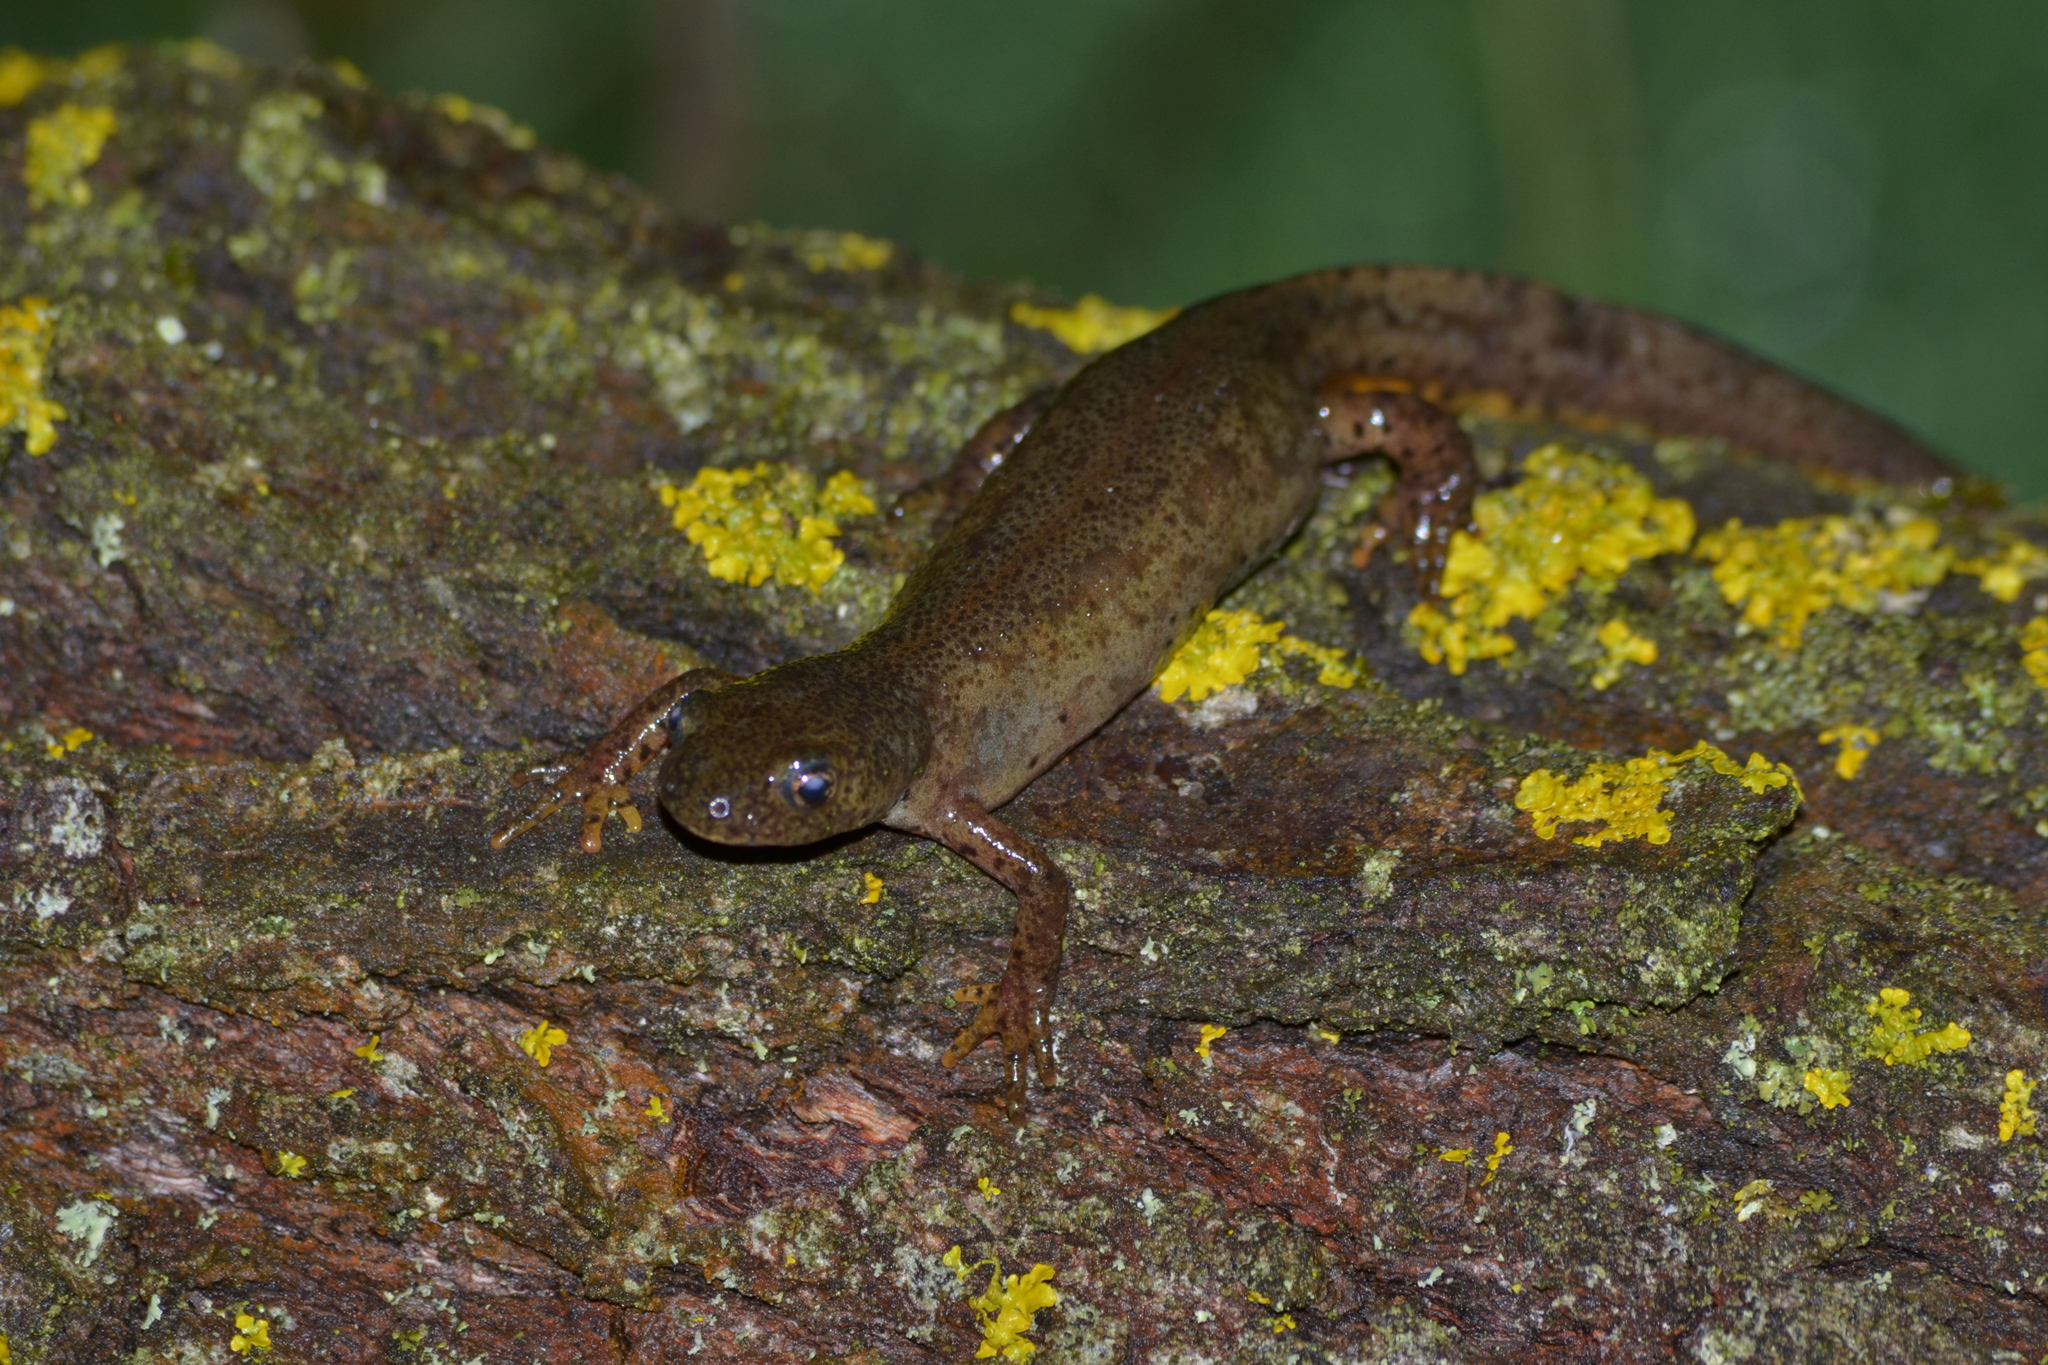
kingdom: Animalia
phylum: Chordata
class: Amphibia
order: Caudata
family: Salamandridae
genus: Ichthyosaura
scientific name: Ichthyosaura alpestris
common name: Alpine newt
